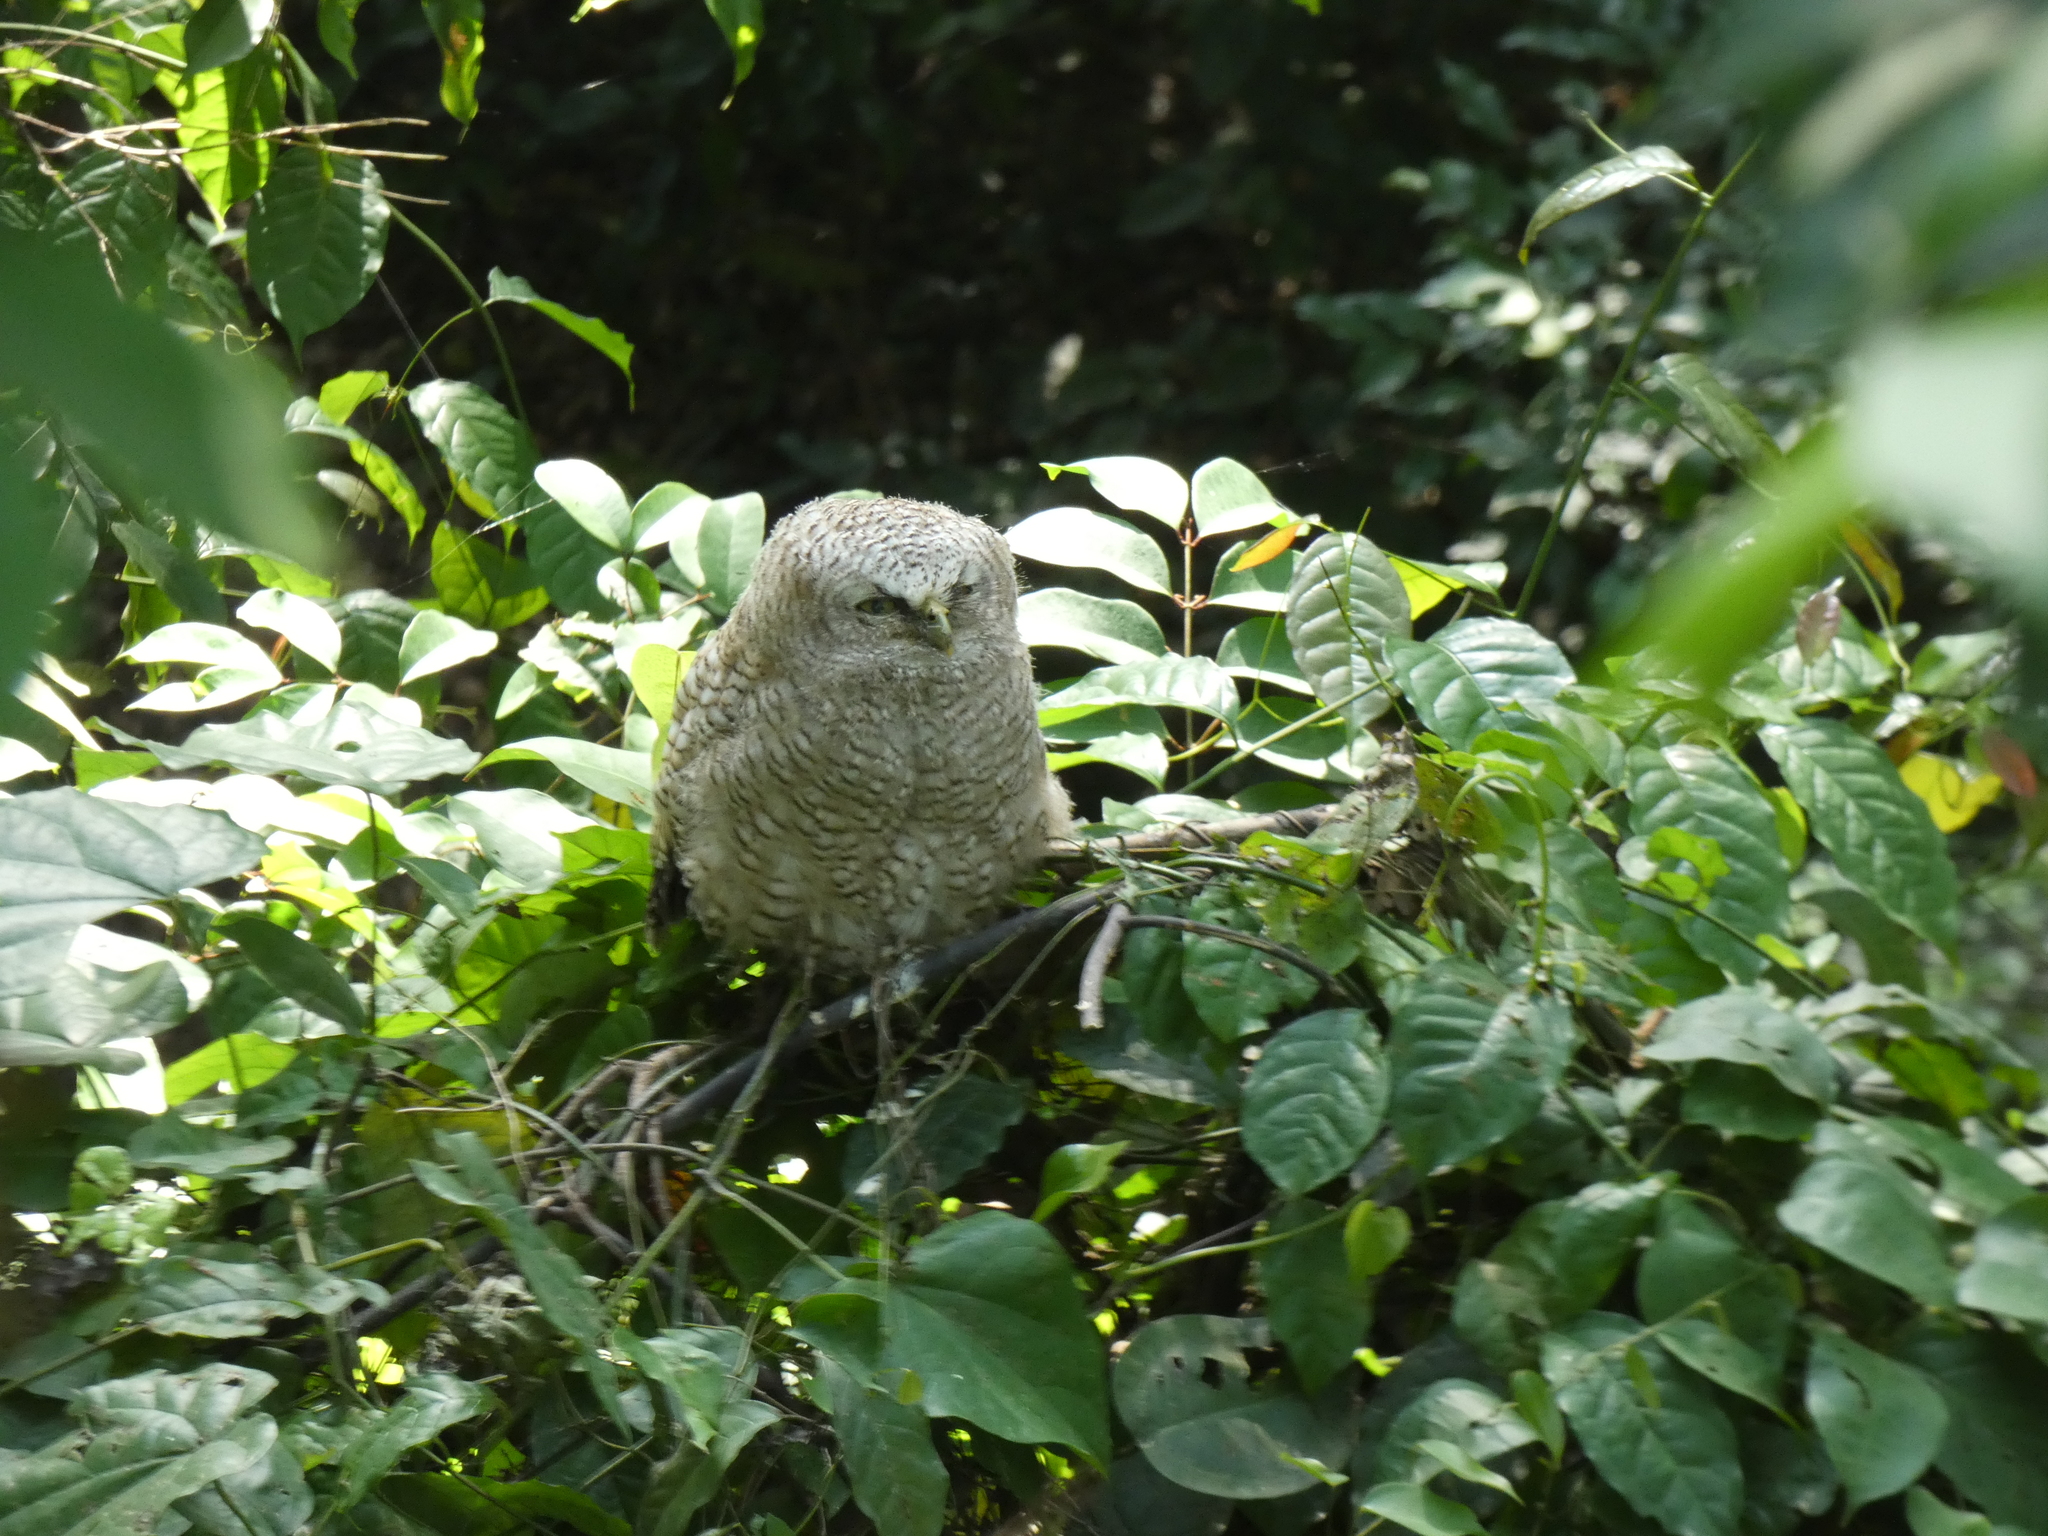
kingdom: Animalia
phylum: Chordata
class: Aves
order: Strigiformes
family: Strigidae
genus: Bubo
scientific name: Bubo leucostictus
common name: Akun eagle-owl
